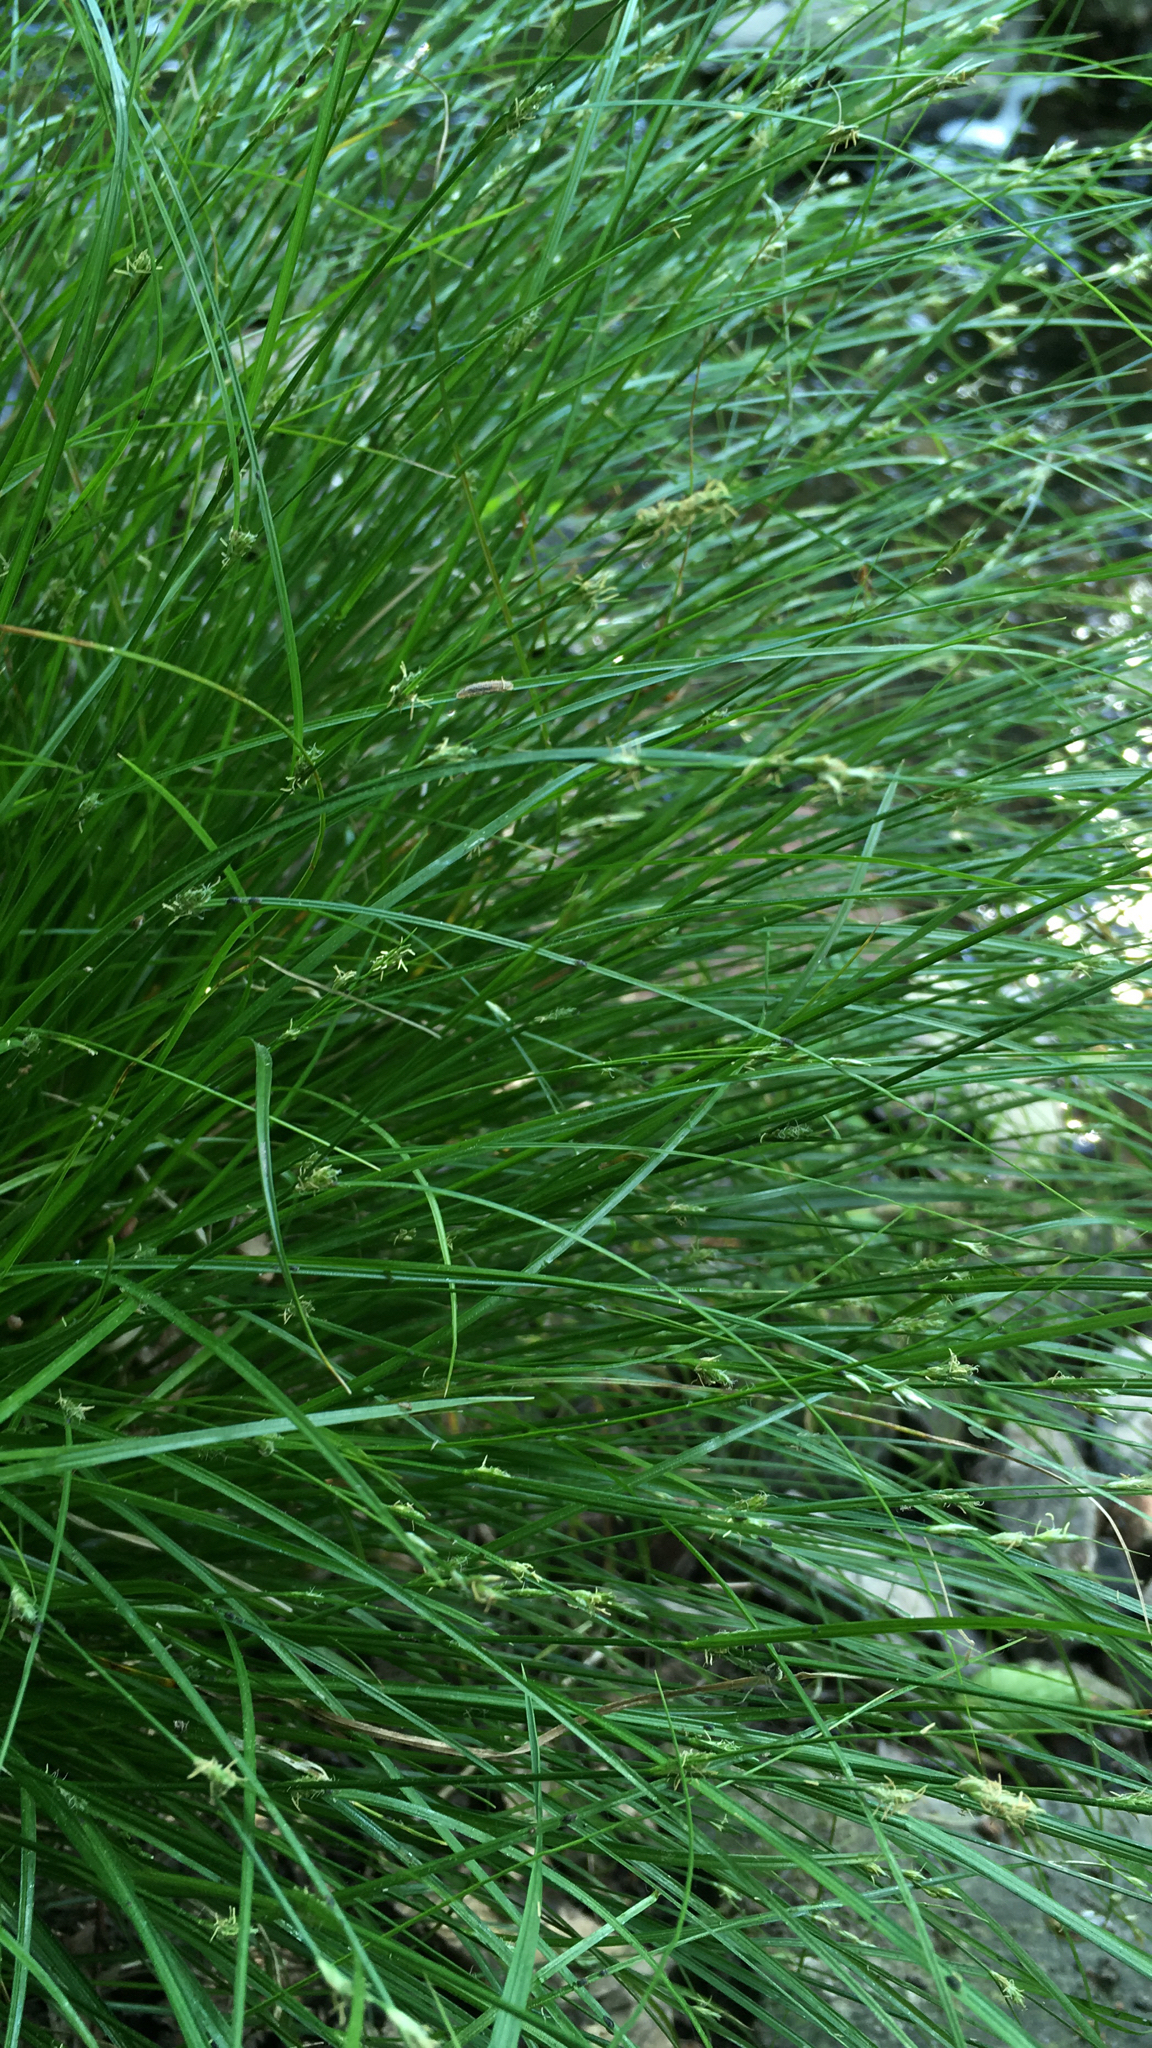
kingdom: Plantae
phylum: Tracheophyta
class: Liliopsida
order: Poales
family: Cyperaceae
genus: Carex
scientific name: Carex remota
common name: Remote sedge
